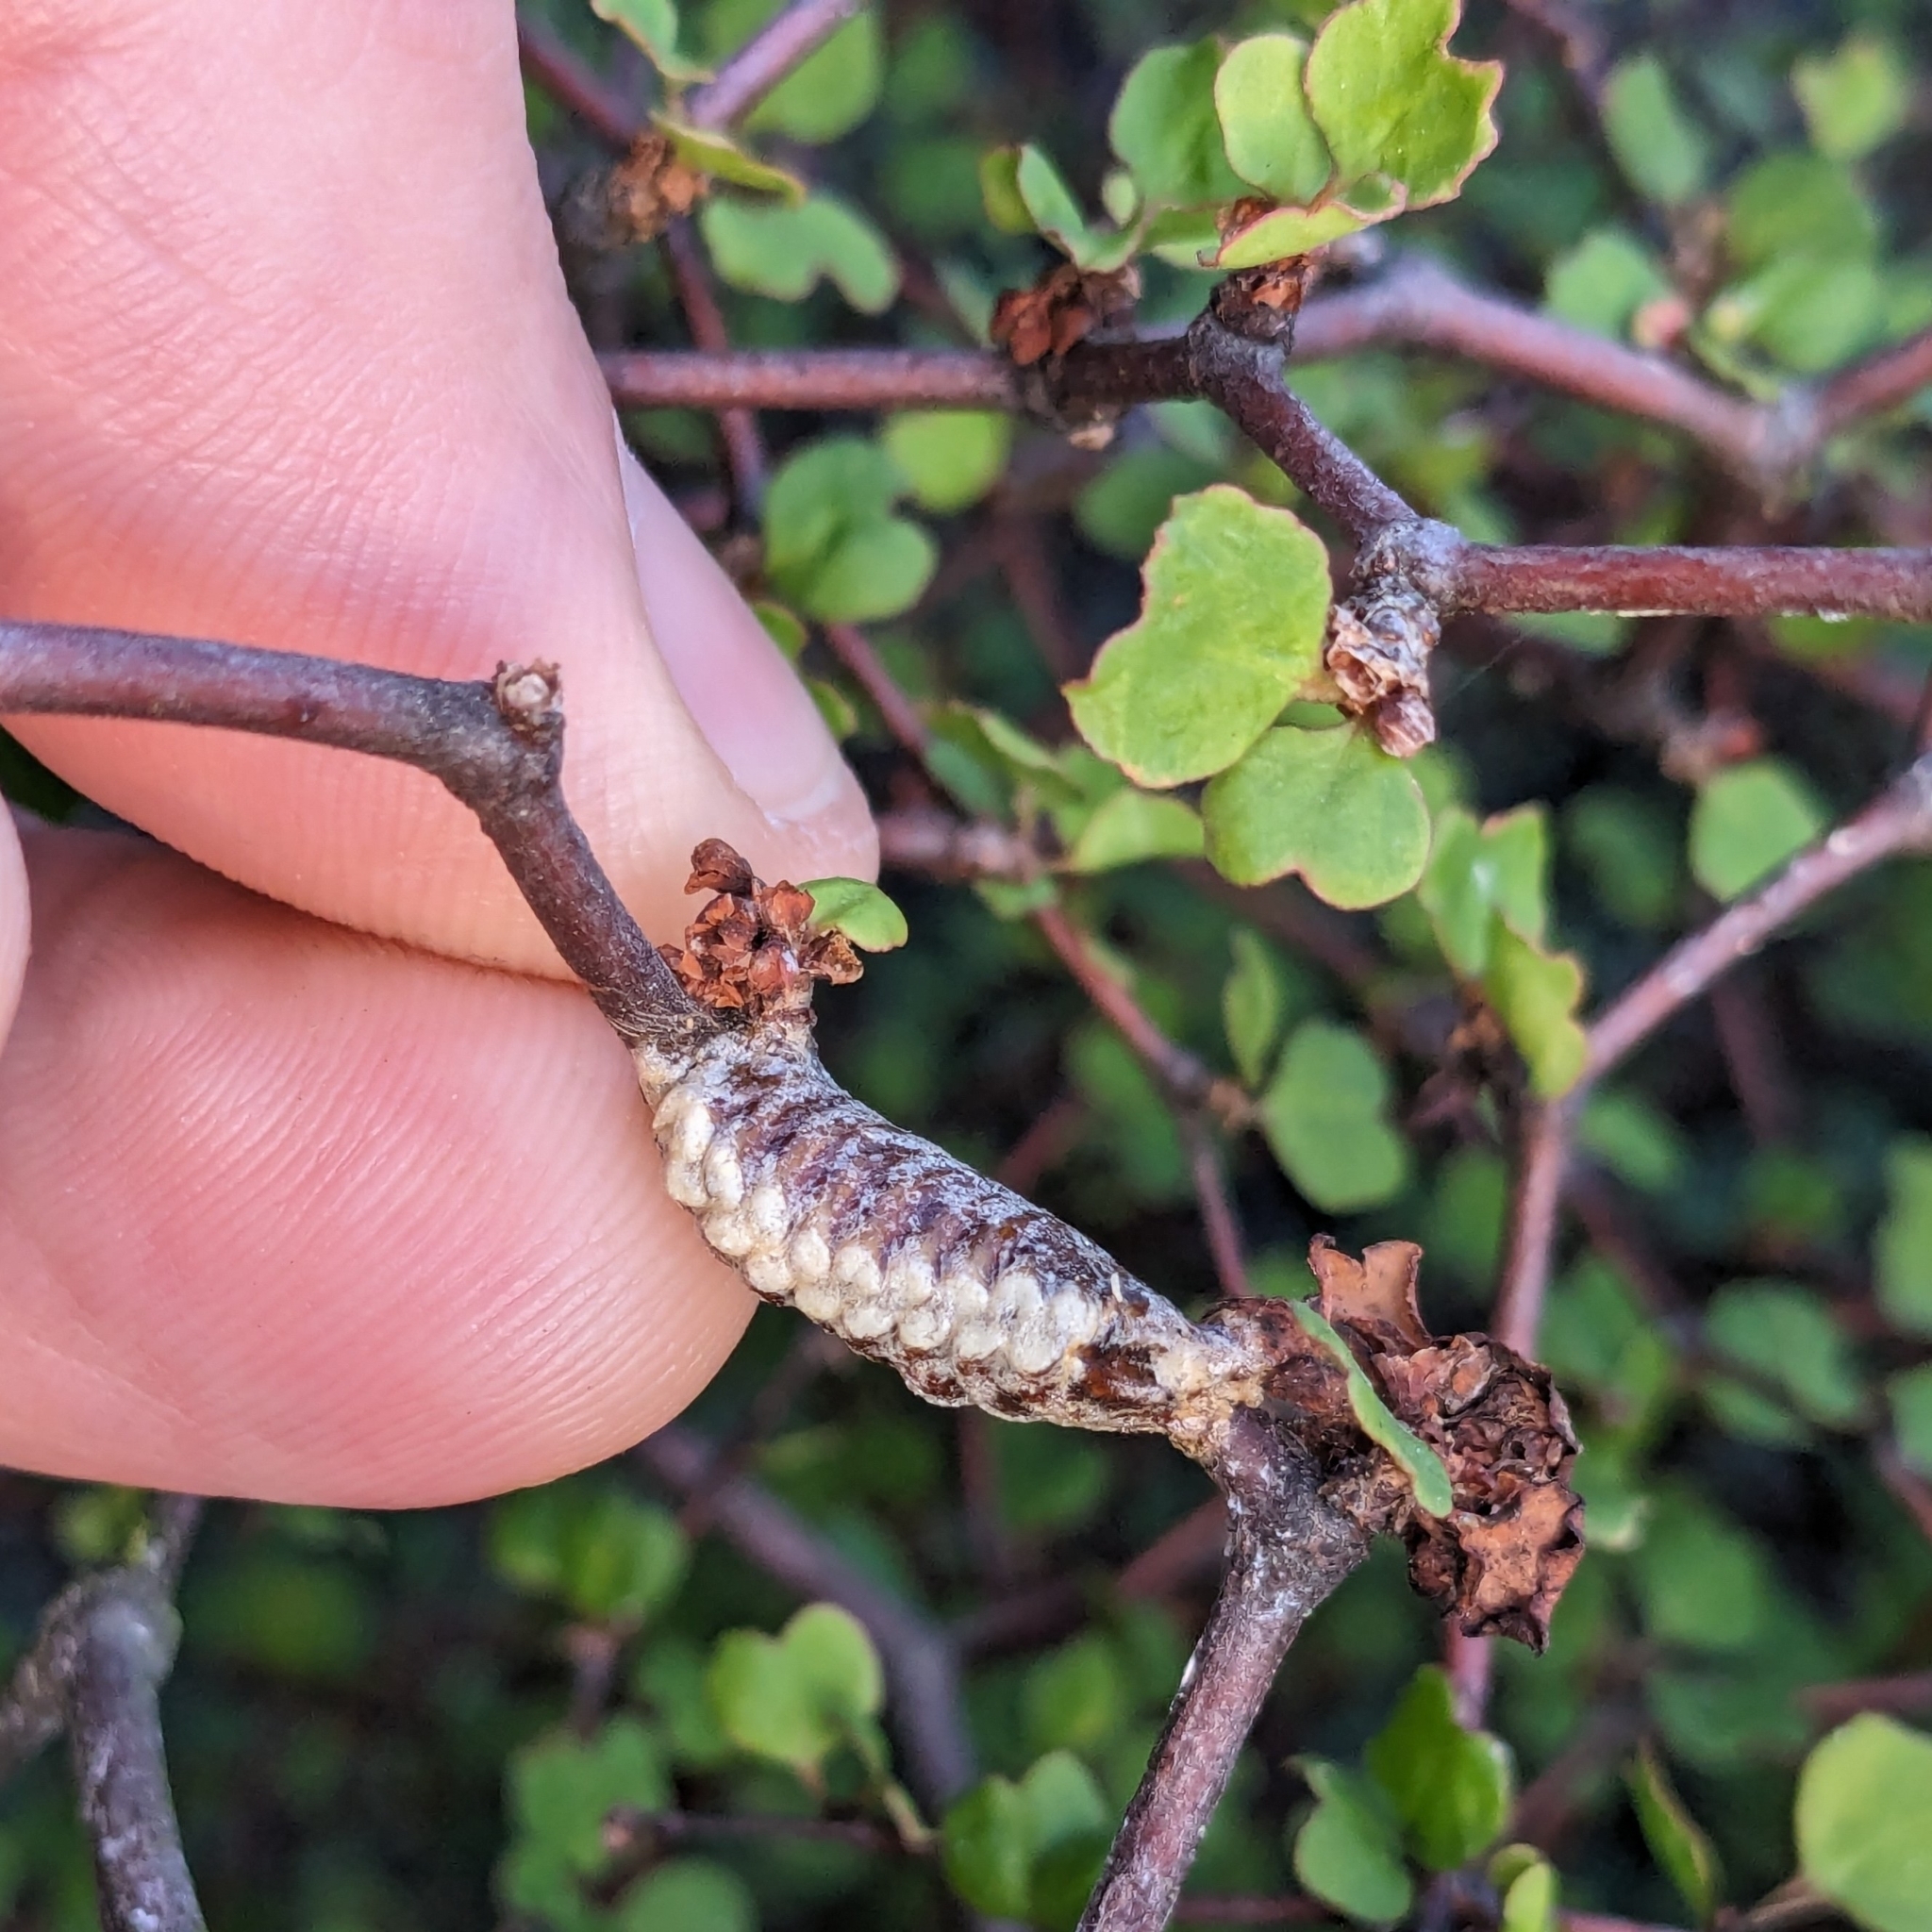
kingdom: Animalia
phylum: Arthropoda
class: Insecta
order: Mantodea
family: Mantidae
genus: Orthodera
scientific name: Orthodera novaezealandiae
